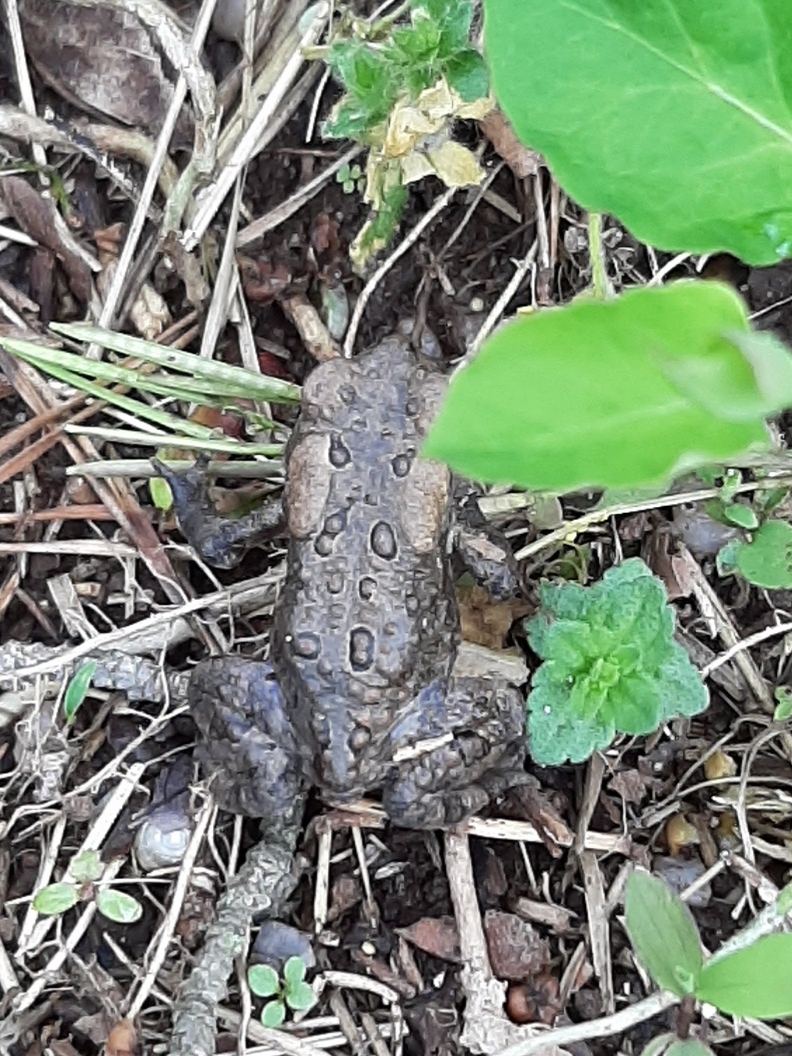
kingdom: Animalia
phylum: Chordata
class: Amphibia
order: Anura
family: Bufonidae
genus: Anaxyrus
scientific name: Anaxyrus americanus
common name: American toad
